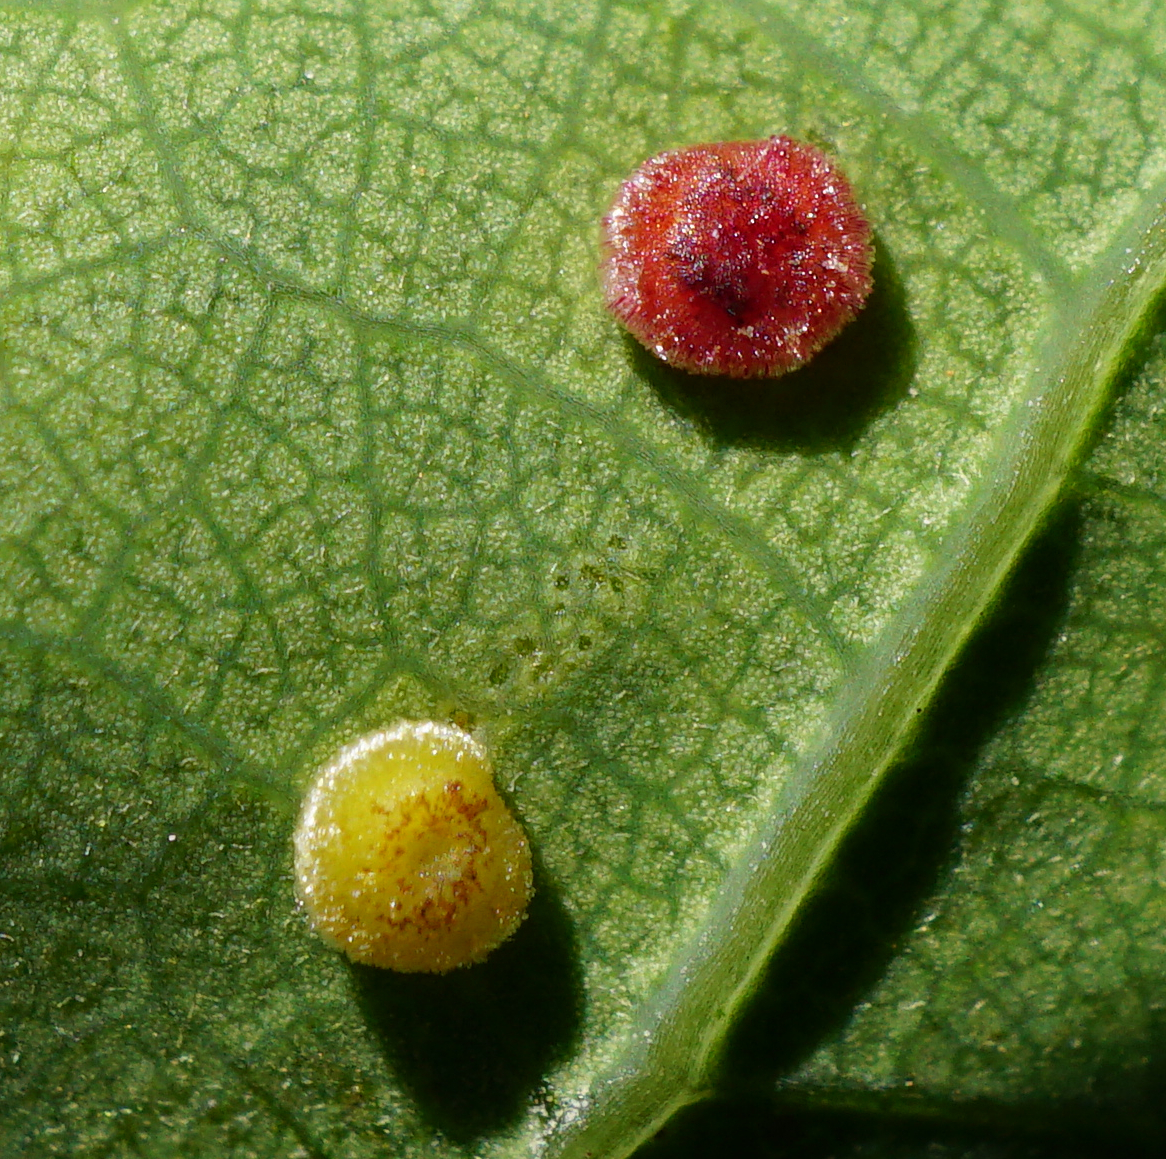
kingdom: Animalia
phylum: Arthropoda
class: Insecta
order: Hymenoptera
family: Cynipidae
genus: Neuroterus
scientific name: Neuroterus quercusbaccarum
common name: Common spangle gall
